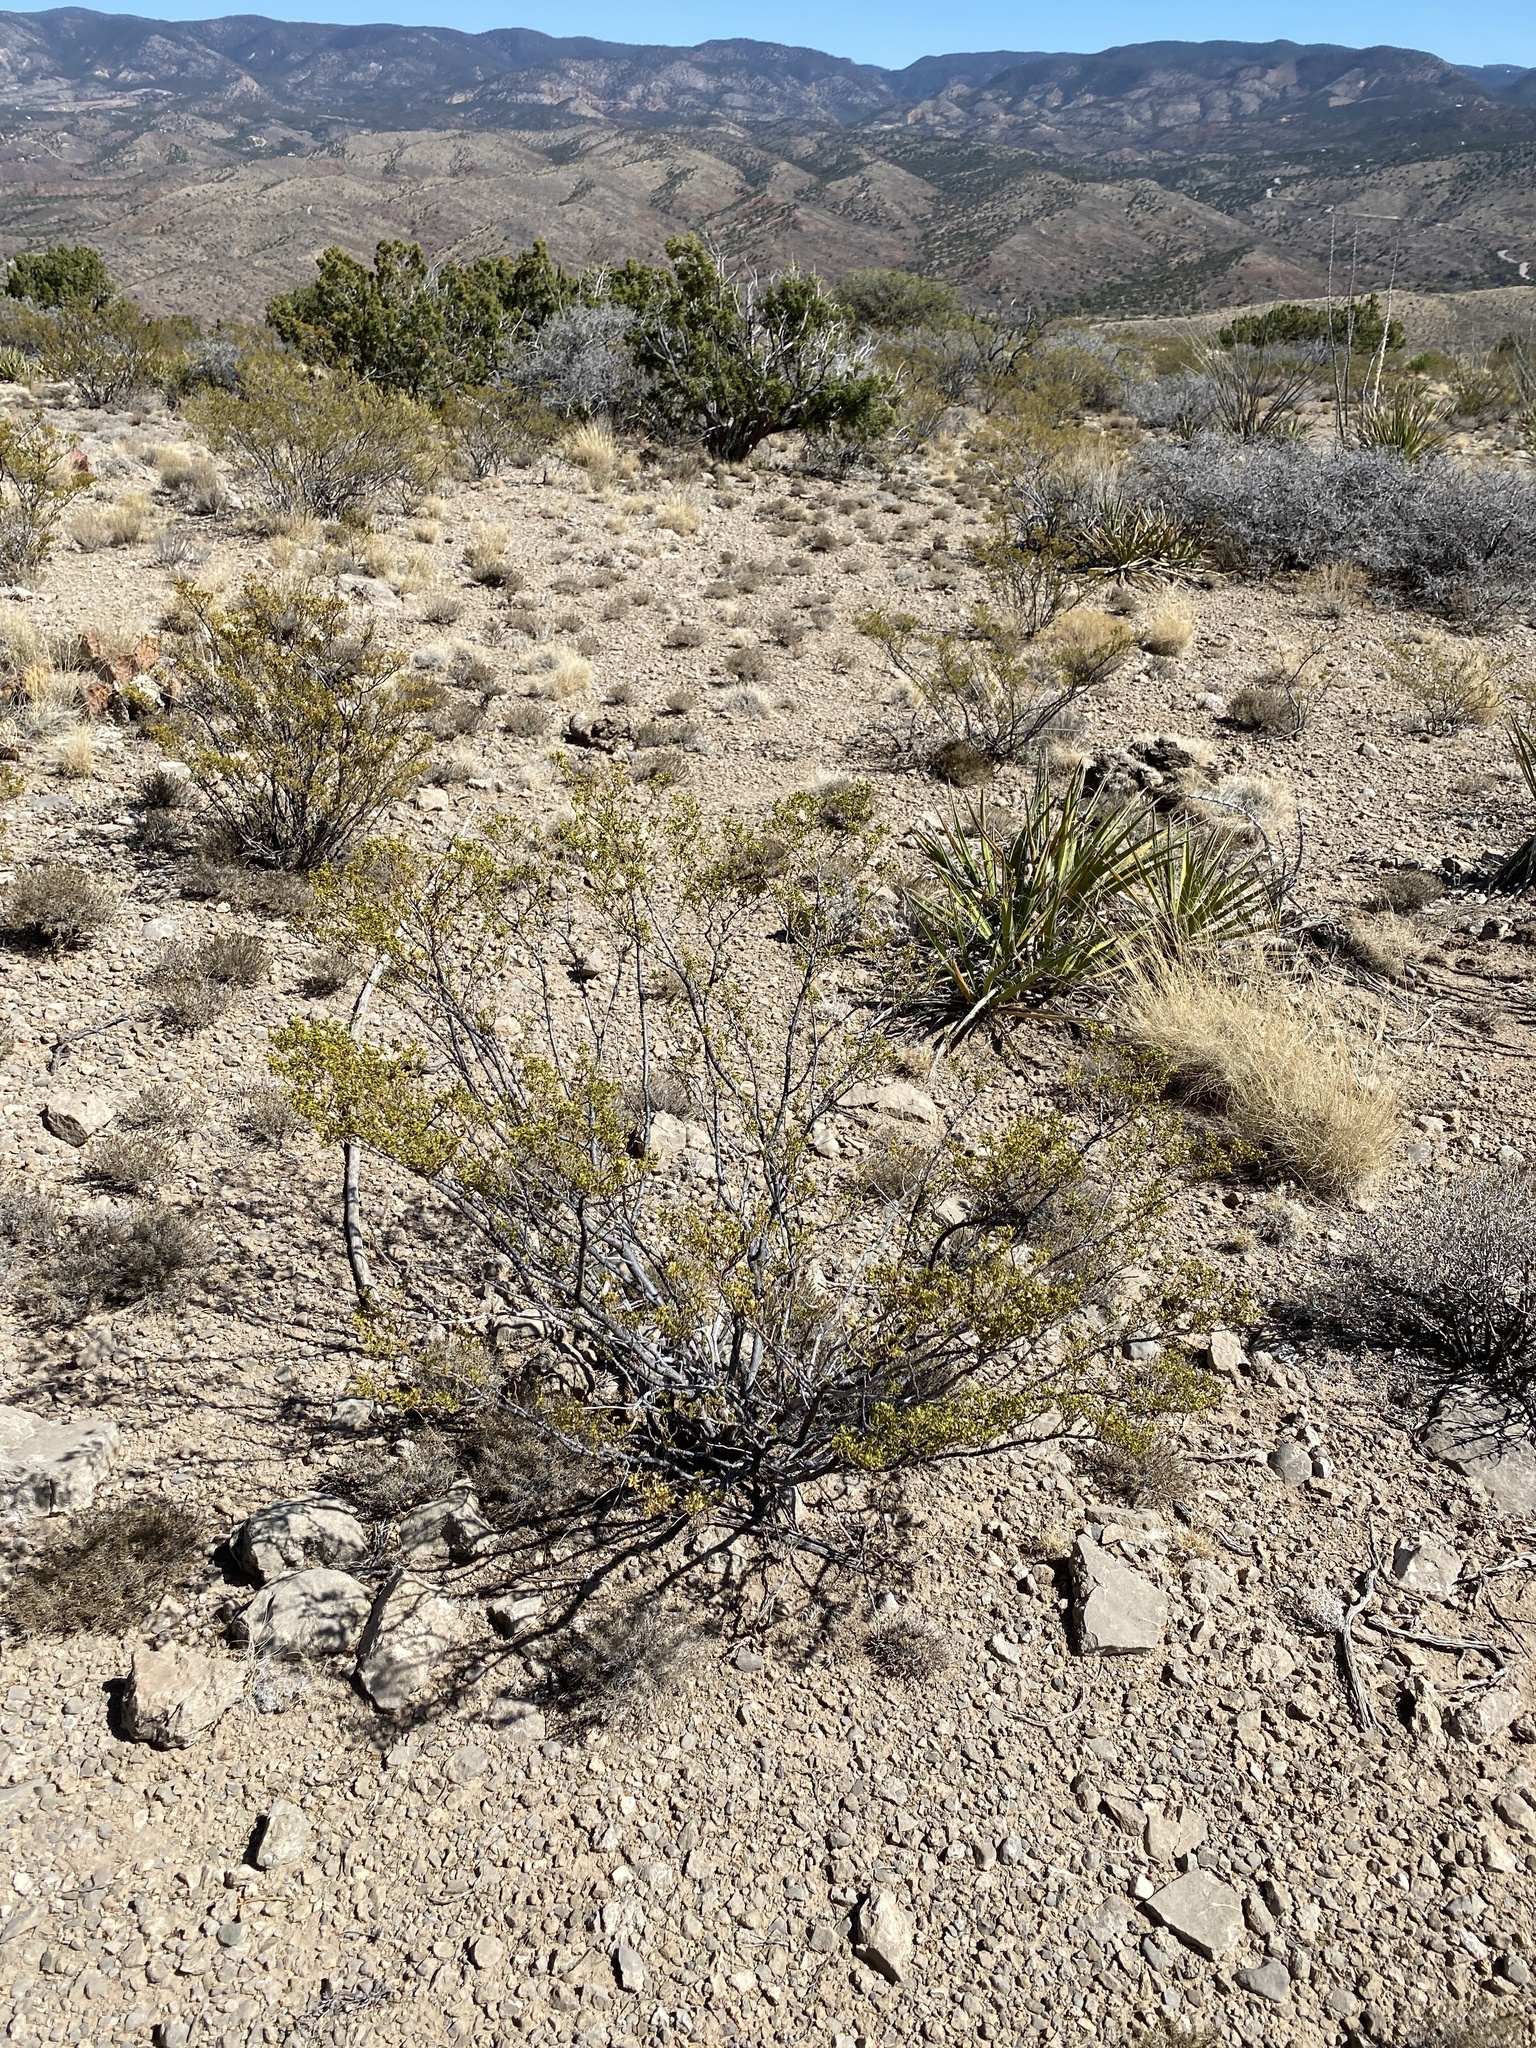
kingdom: Plantae
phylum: Tracheophyta
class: Magnoliopsida
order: Zygophyllales
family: Zygophyllaceae
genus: Larrea
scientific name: Larrea tridentata
